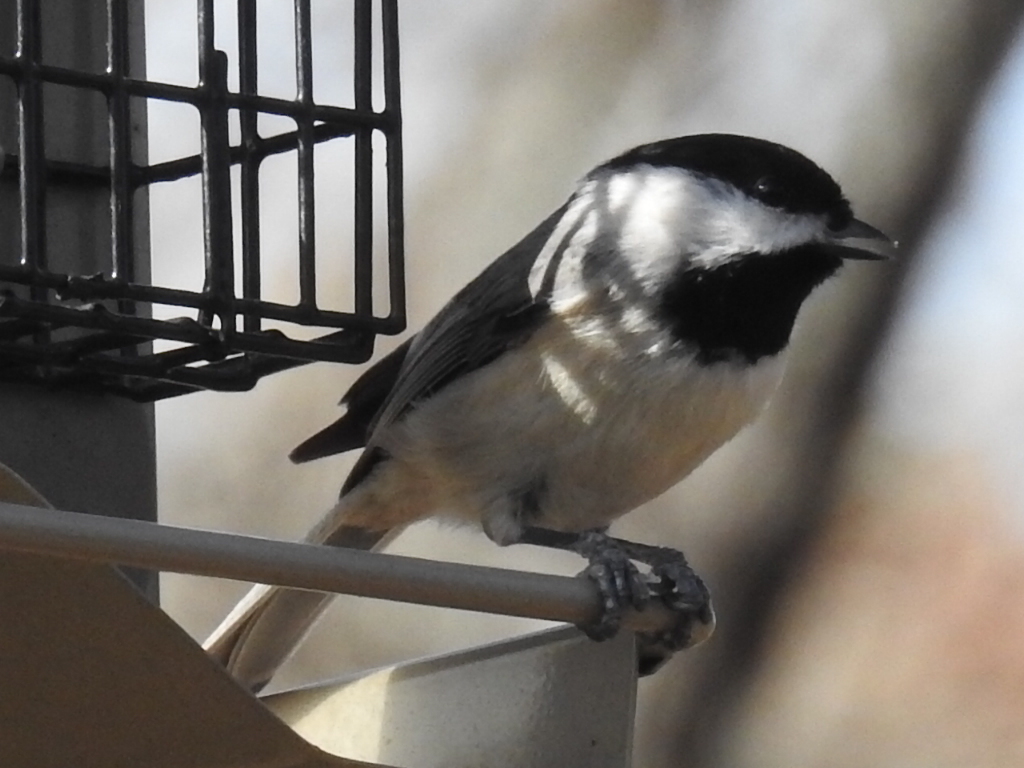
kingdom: Animalia
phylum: Chordata
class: Aves
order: Passeriformes
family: Paridae
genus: Poecile
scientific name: Poecile carolinensis
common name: Carolina chickadee
